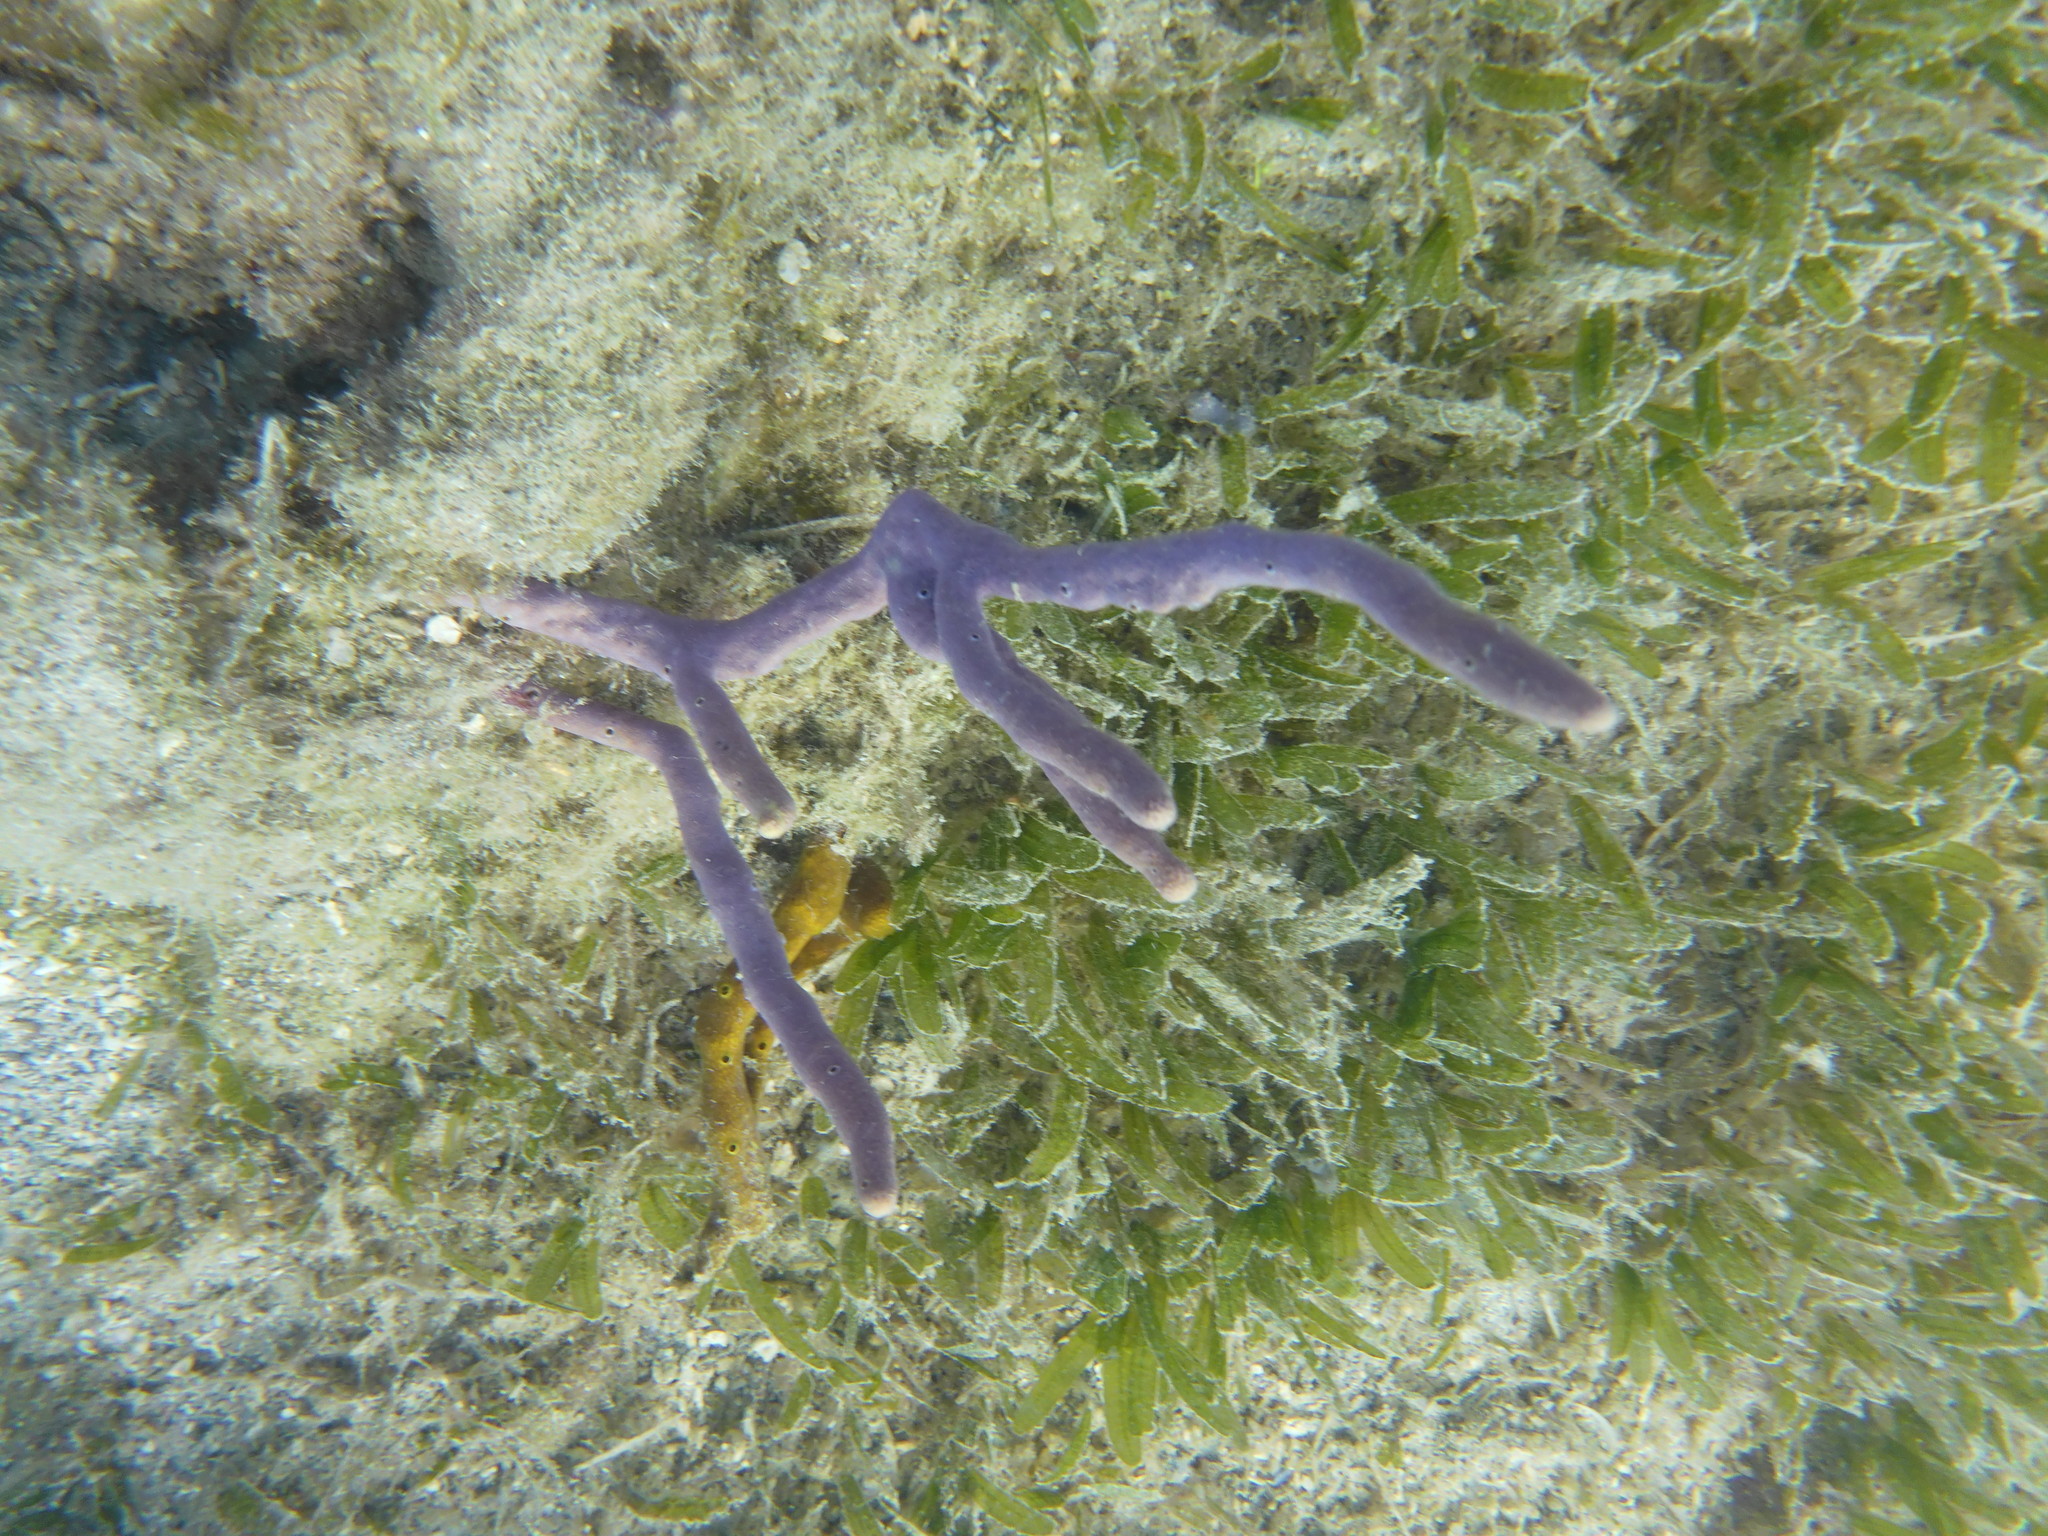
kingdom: Animalia
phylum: Porifera
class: Demospongiae
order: Verongiida
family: Aplysinidae
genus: Aplysina
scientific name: Aplysina cauliformis
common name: Branching candle sponge
